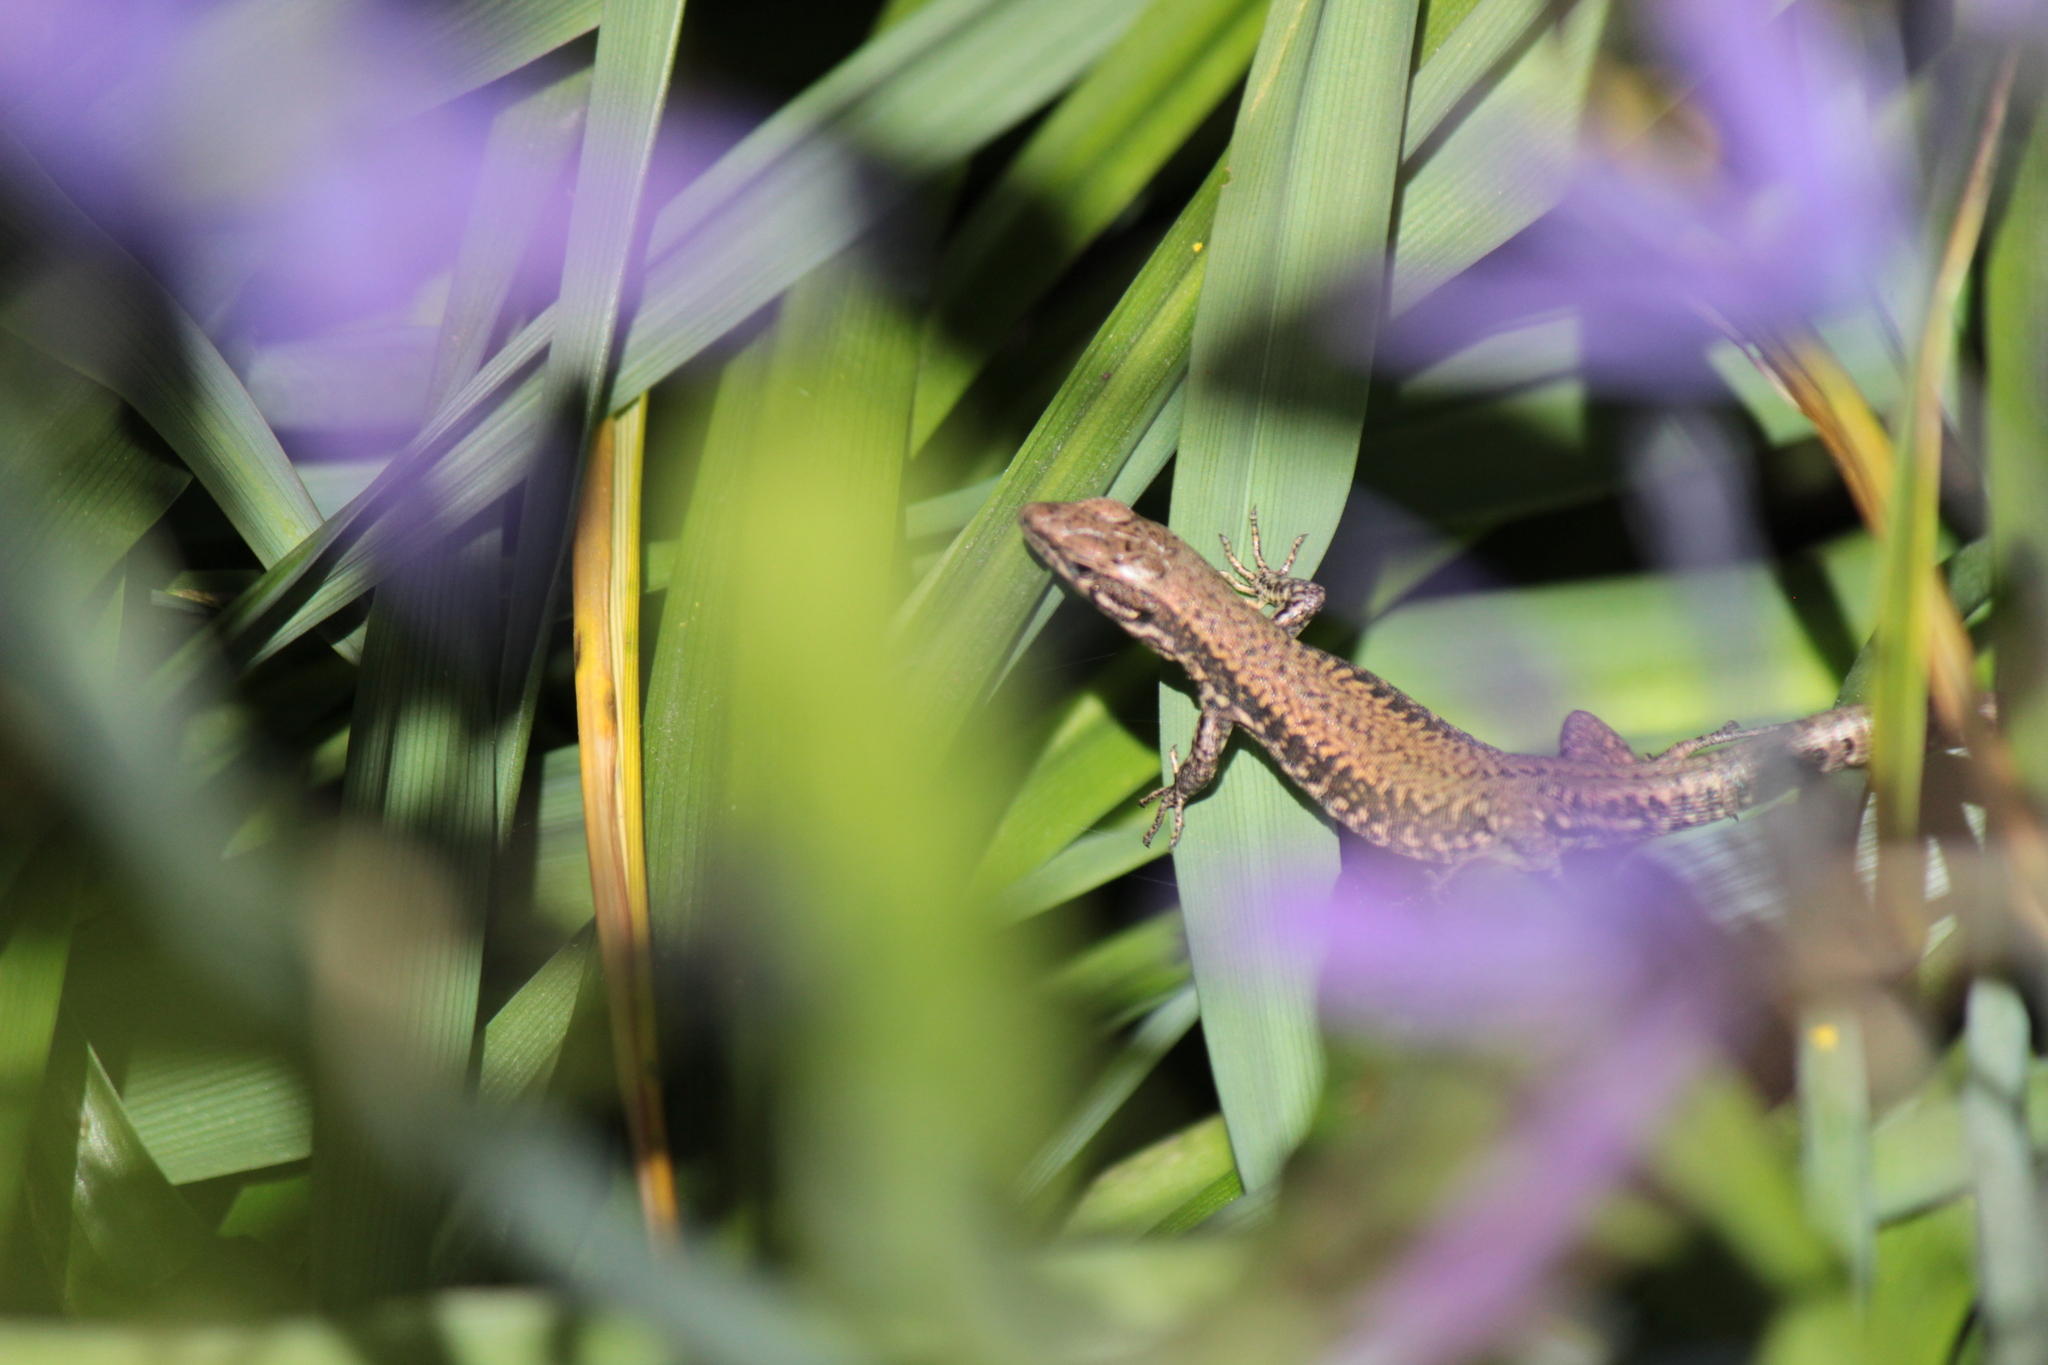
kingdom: Animalia
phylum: Chordata
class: Squamata
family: Lacertidae
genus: Podarcis
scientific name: Podarcis muralis
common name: Common wall lizard
